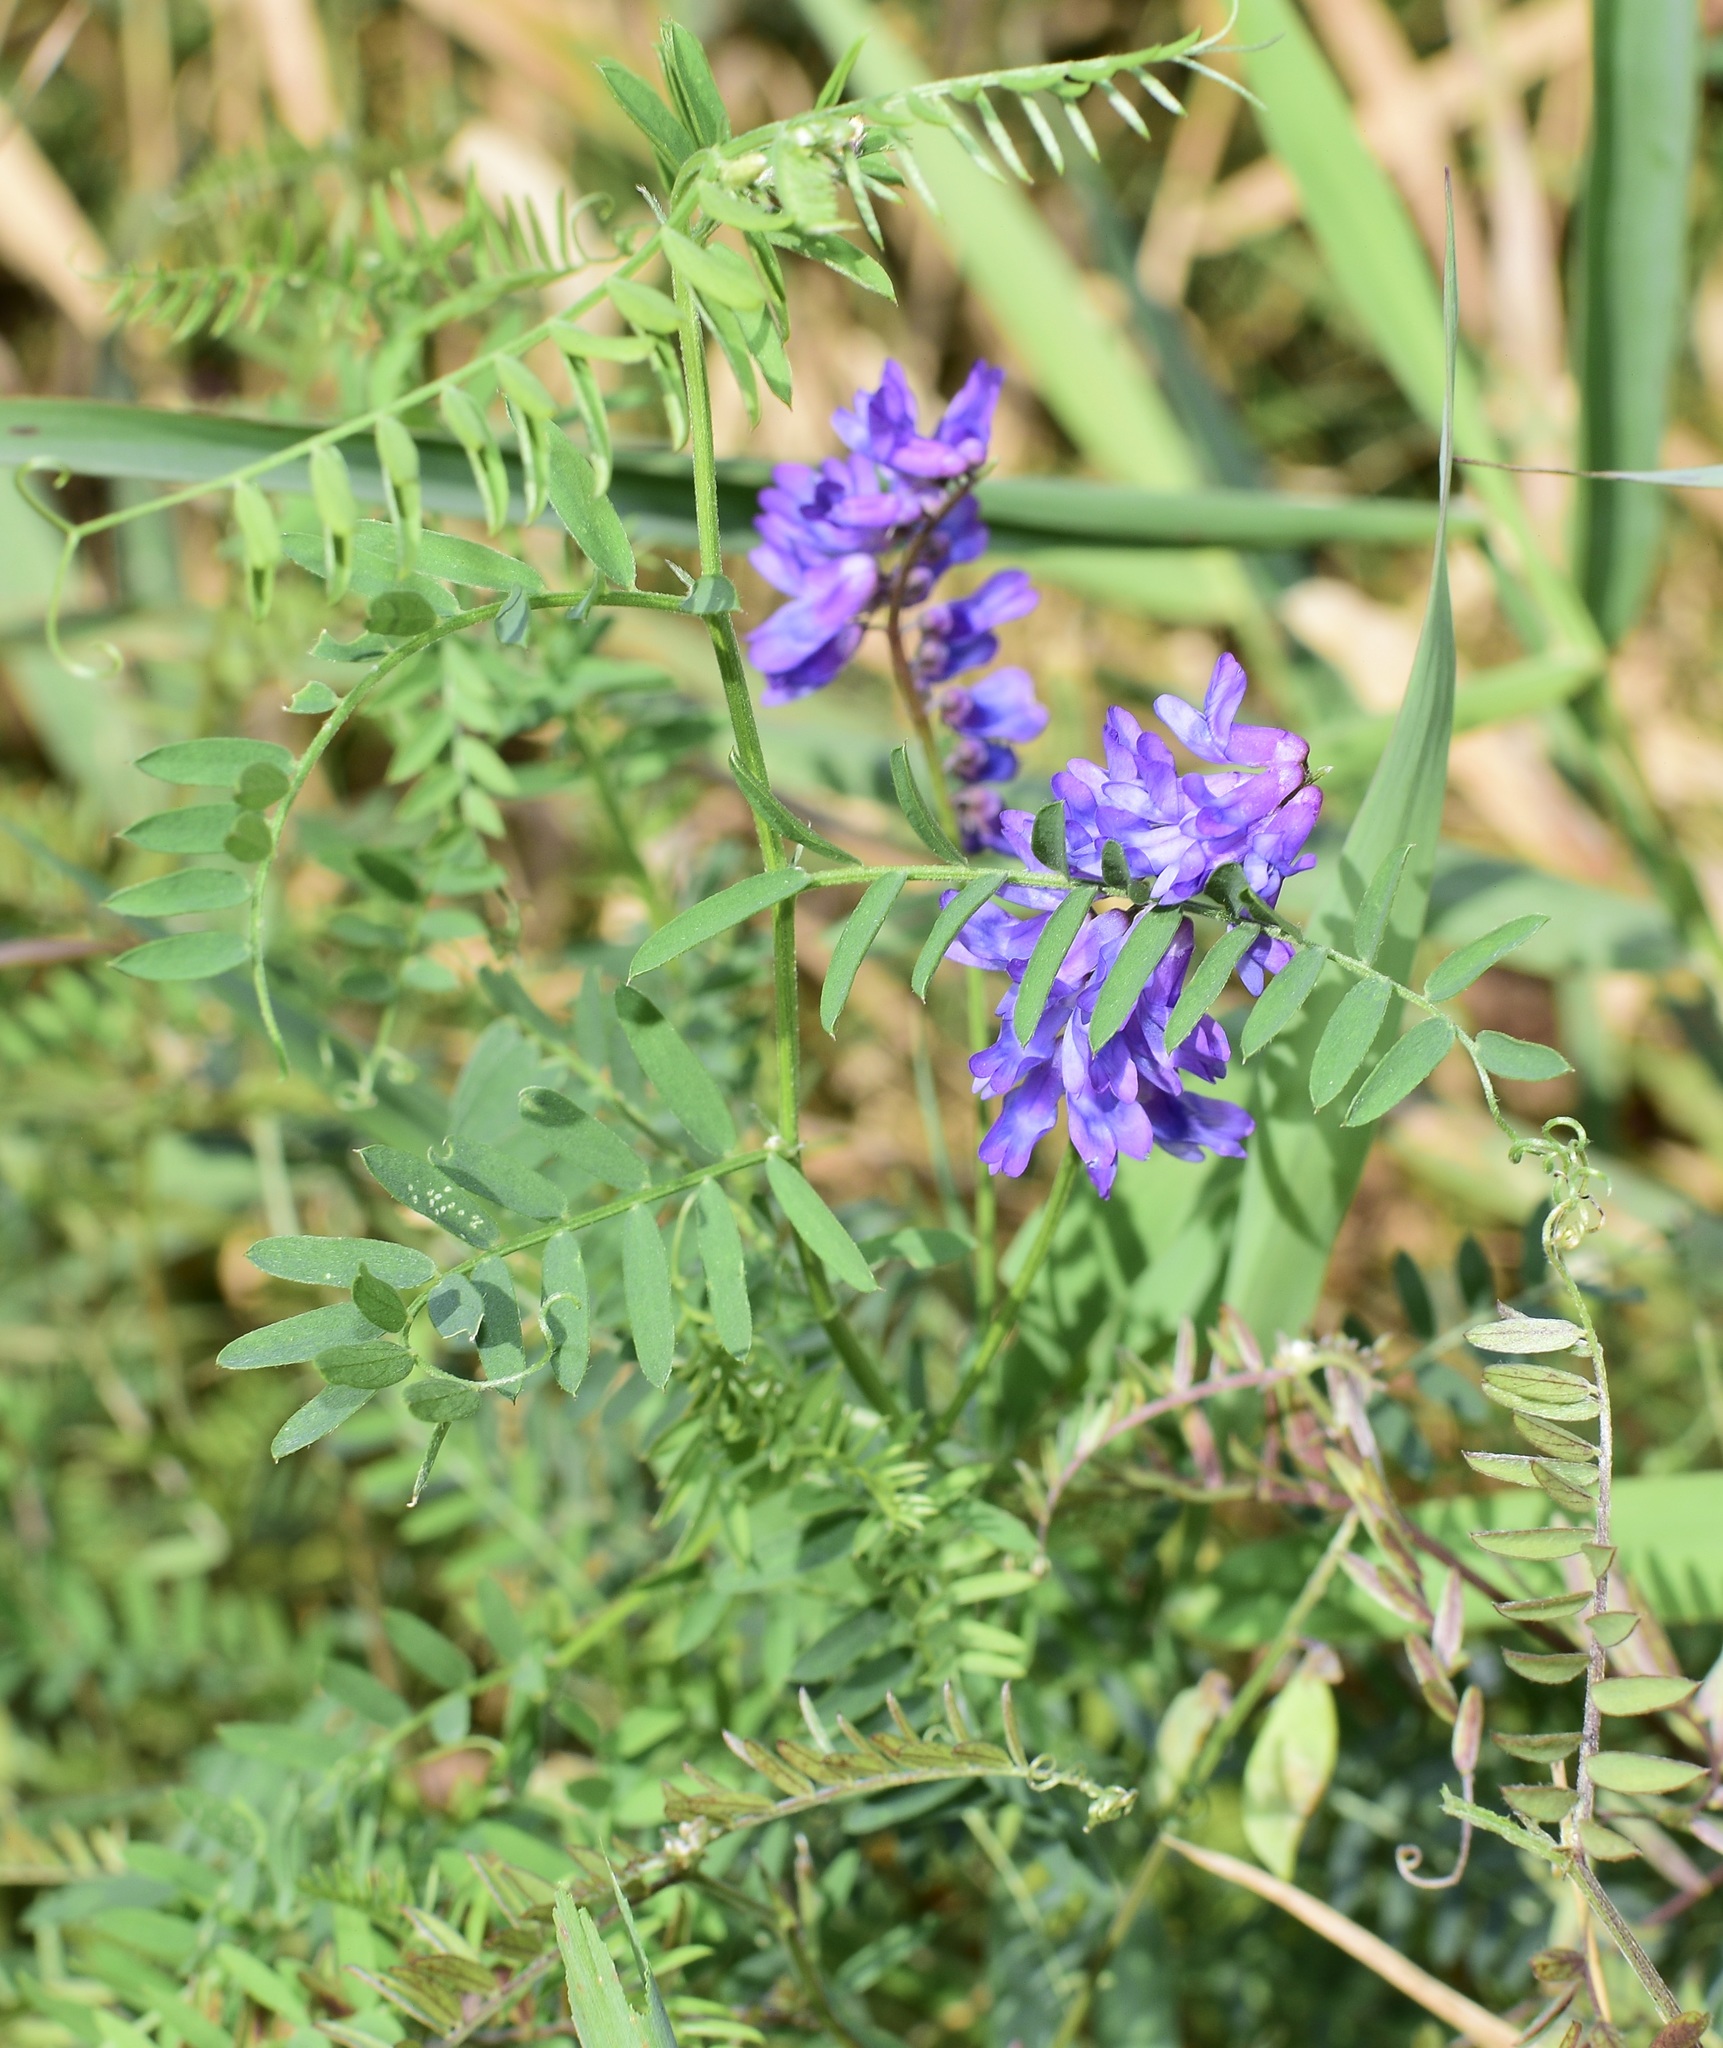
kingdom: Plantae
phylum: Tracheophyta
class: Magnoliopsida
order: Fabales
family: Fabaceae
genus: Vicia
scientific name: Vicia cracca
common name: Bird vetch
